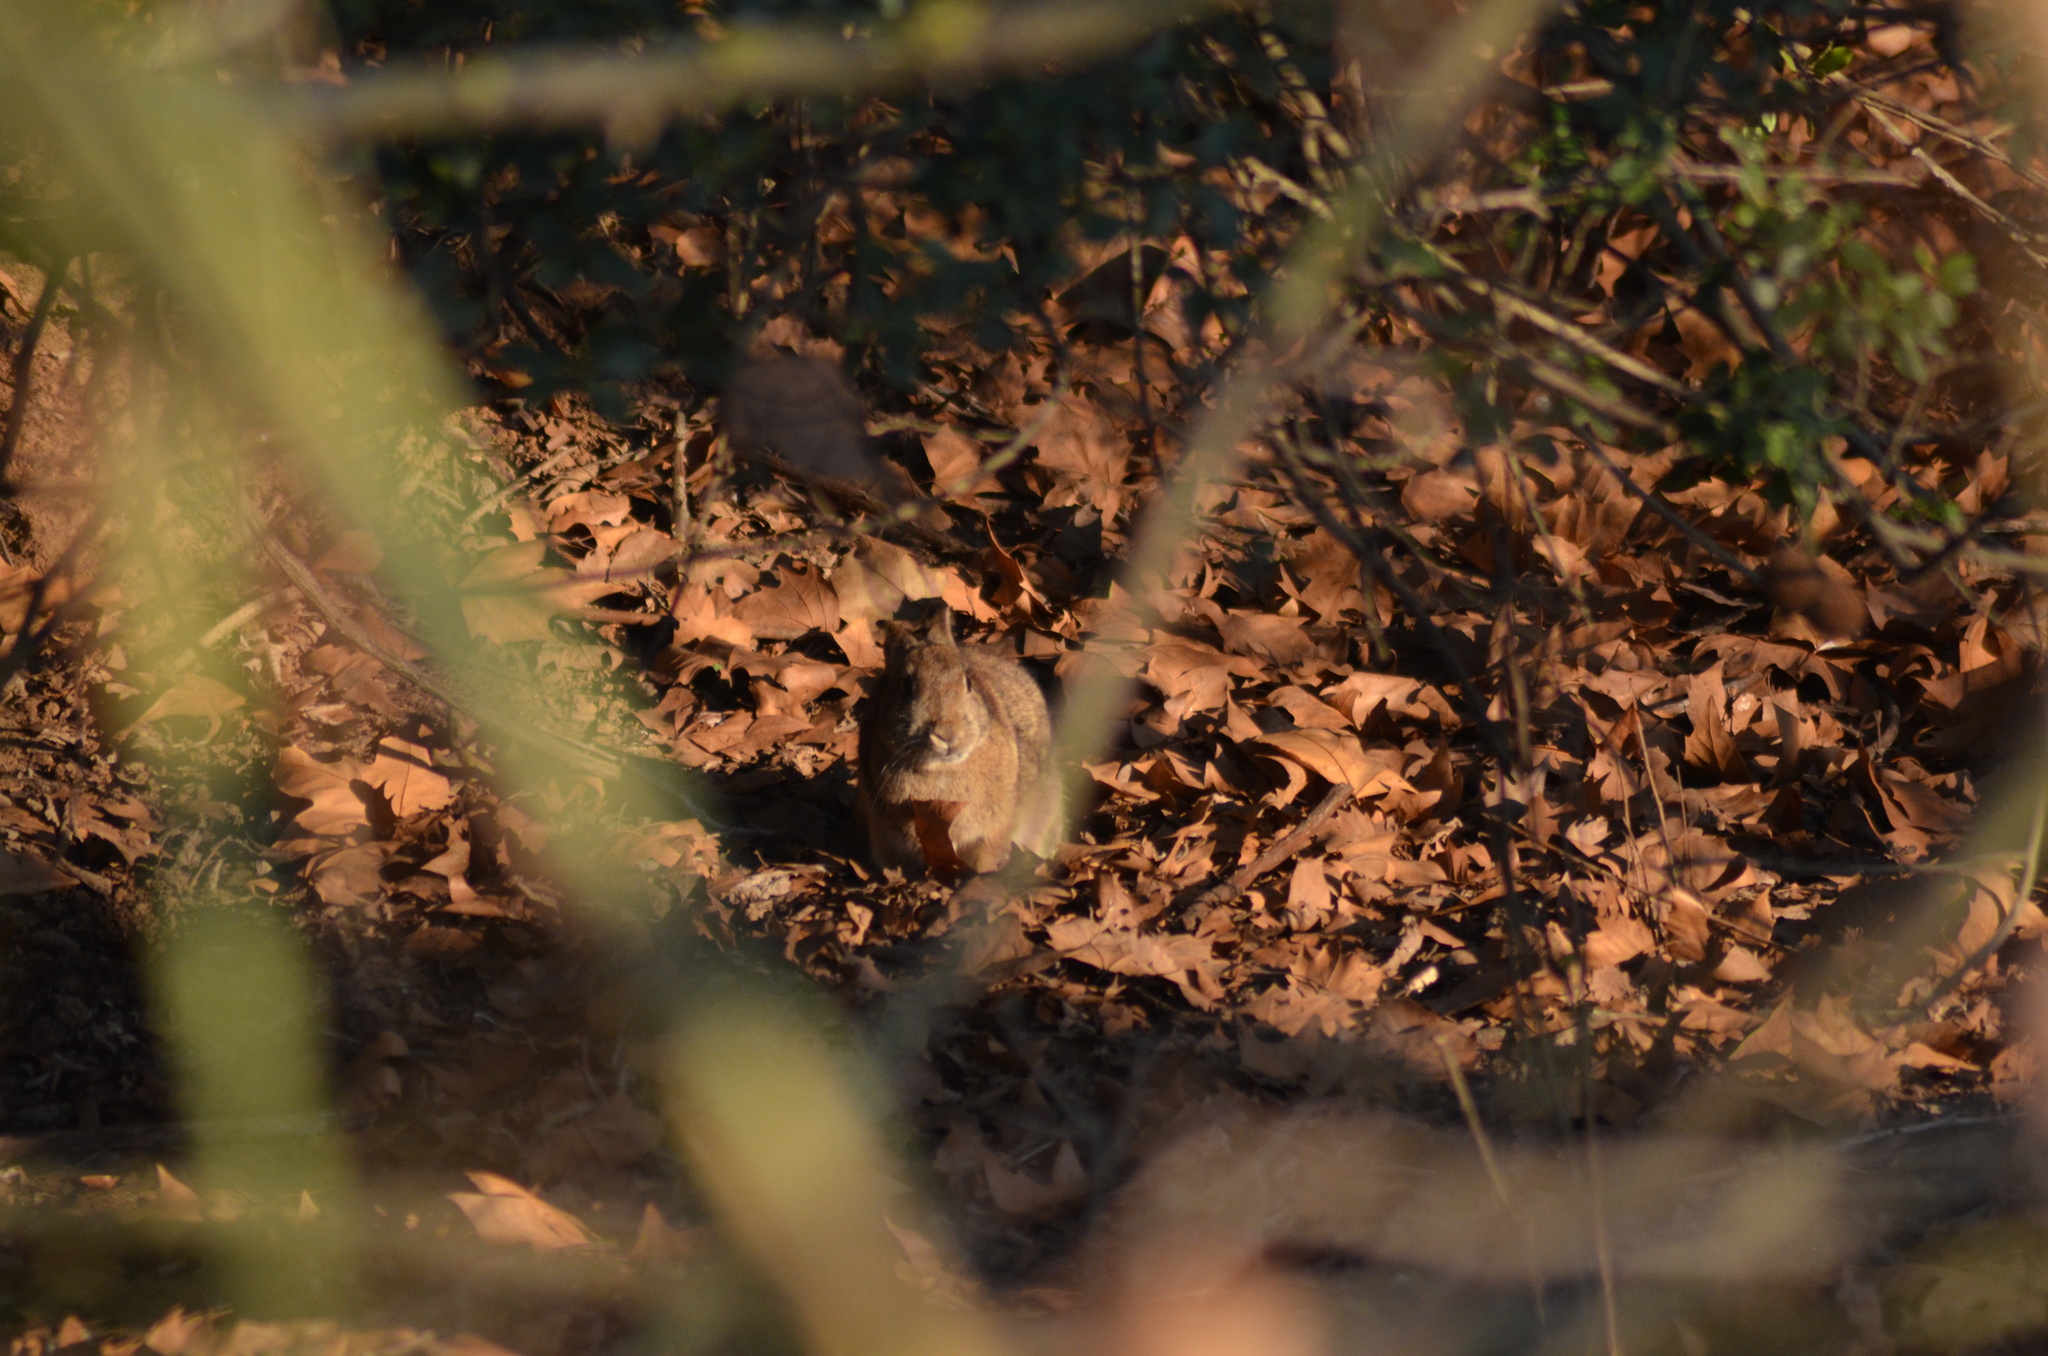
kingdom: Animalia
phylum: Chordata
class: Mammalia
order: Lagomorpha
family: Leporidae
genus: Oryctolagus
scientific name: Oryctolagus cuniculus
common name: European rabbit
